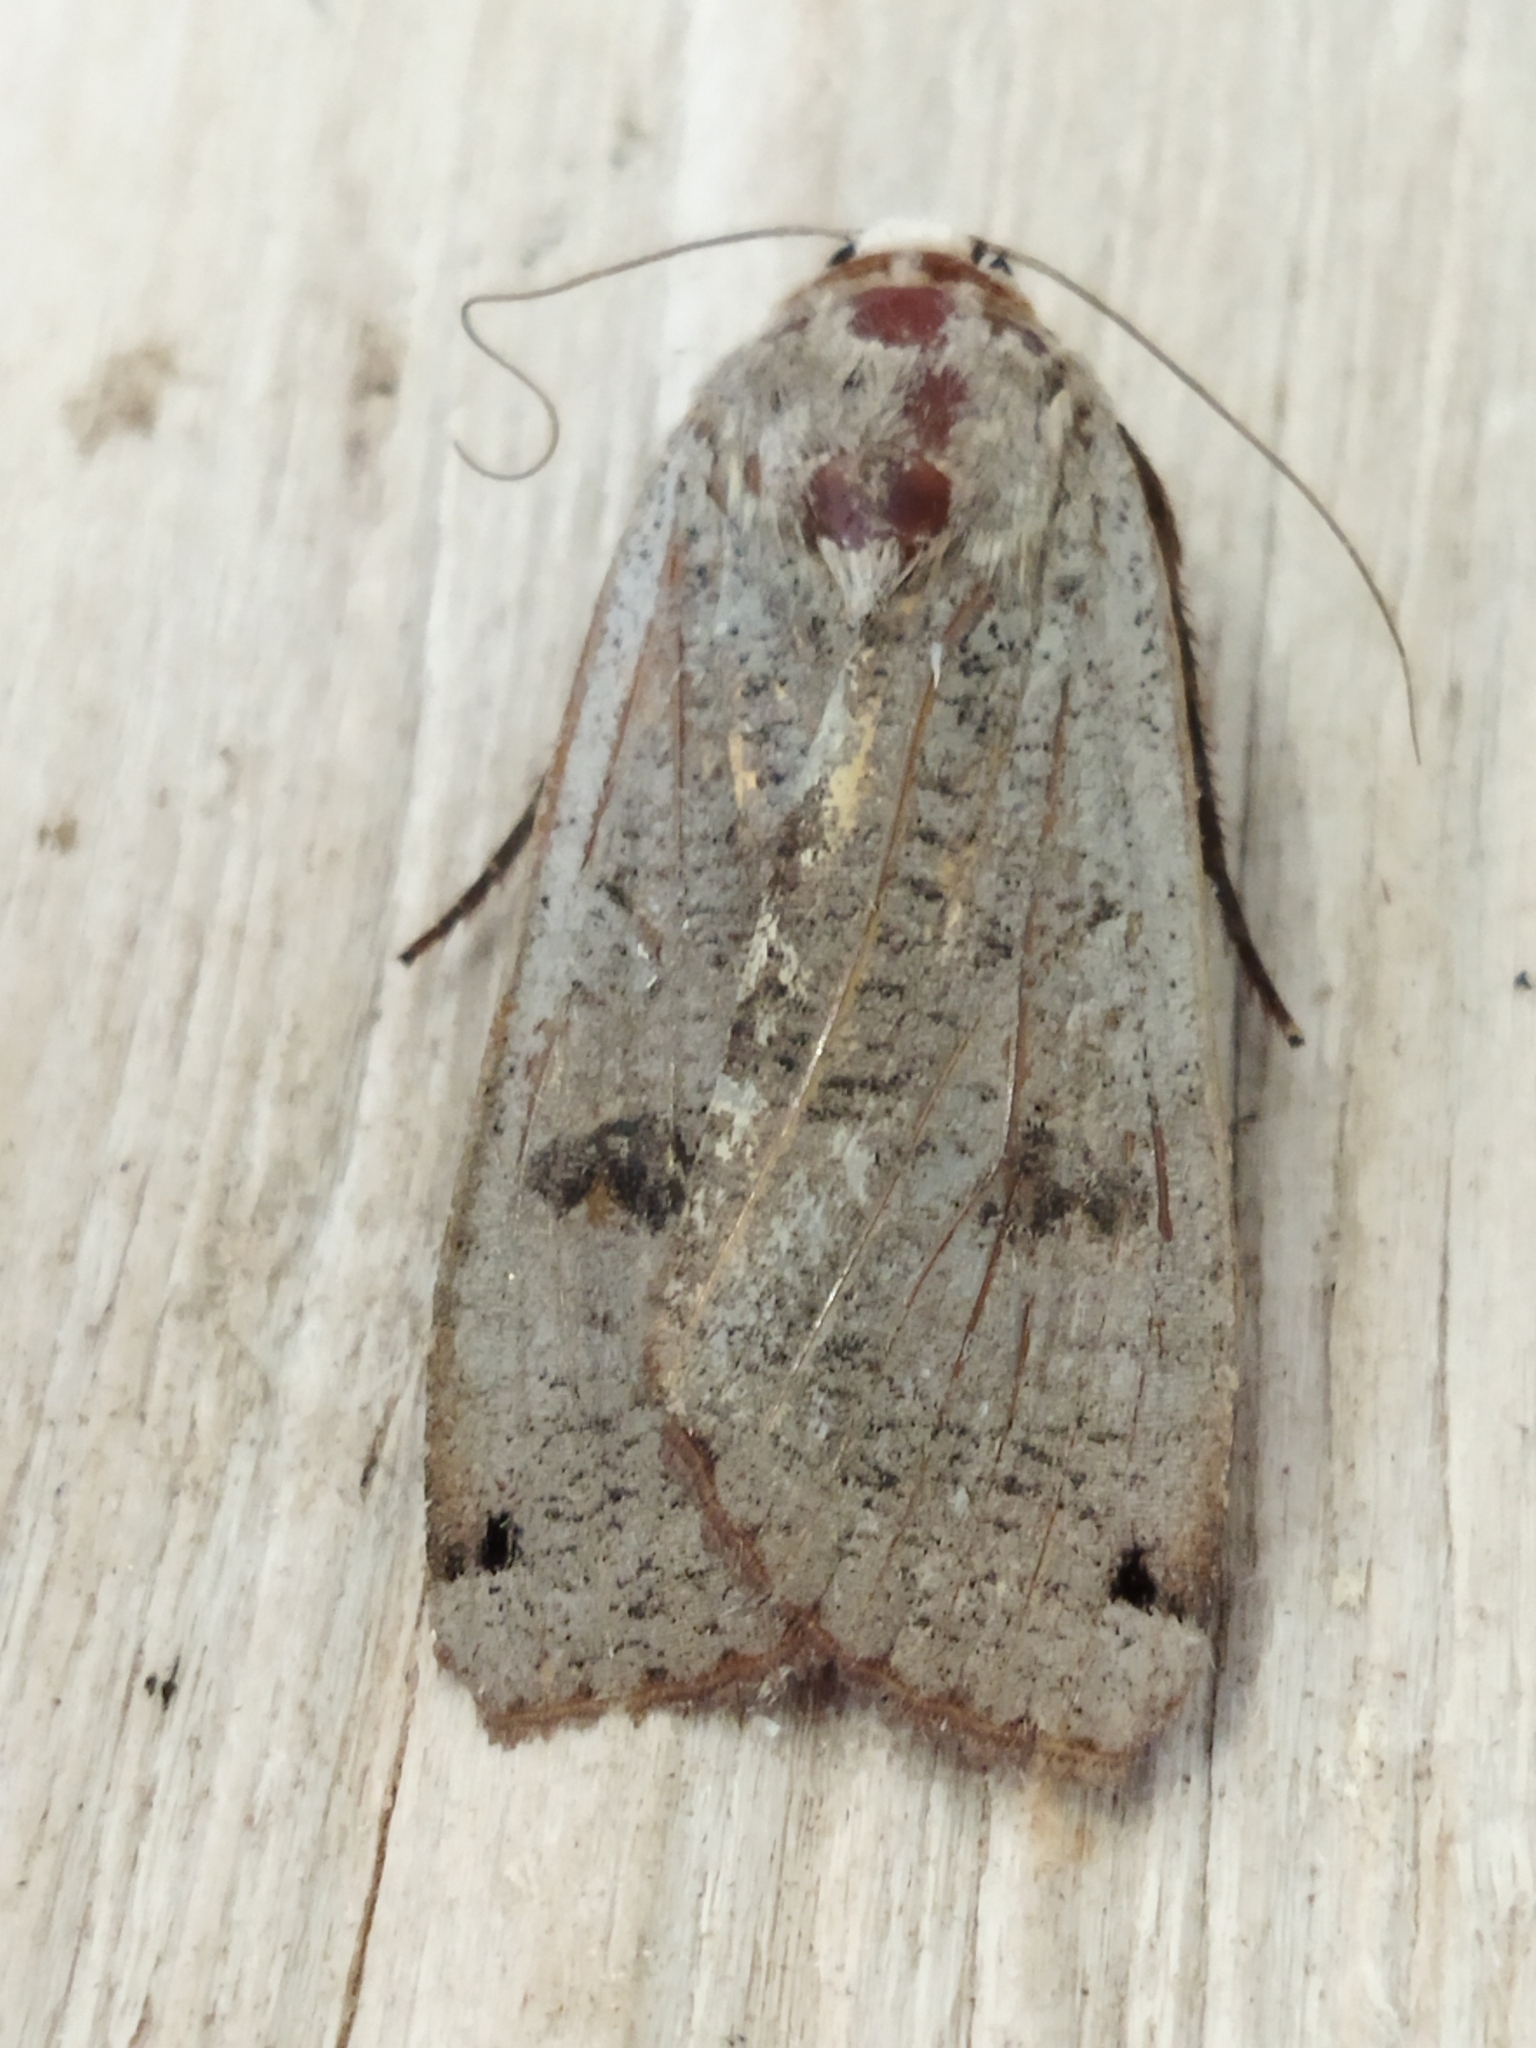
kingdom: Animalia
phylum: Arthropoda
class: Insecta
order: Lepidoptera
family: Noctuidae
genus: Noctua
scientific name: Noctua pronuba
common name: Large yellow underwing
